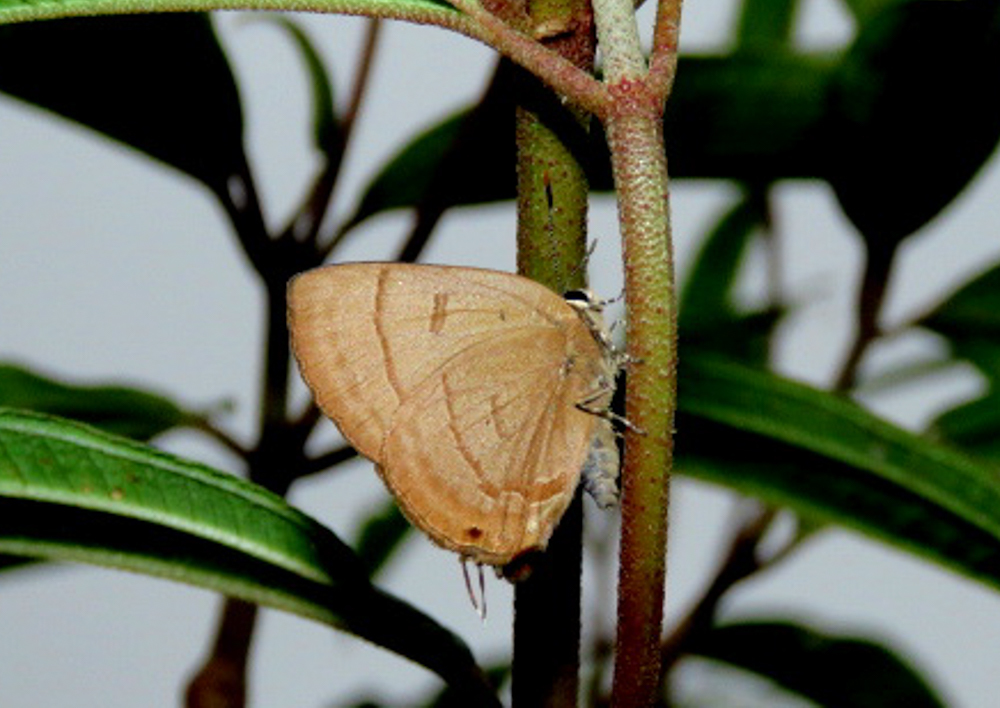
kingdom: Animalia
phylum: Arthropoda
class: Insecta
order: Lepidoptera
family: Lycaenidae
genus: Rapala
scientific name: Rapala pheretima
